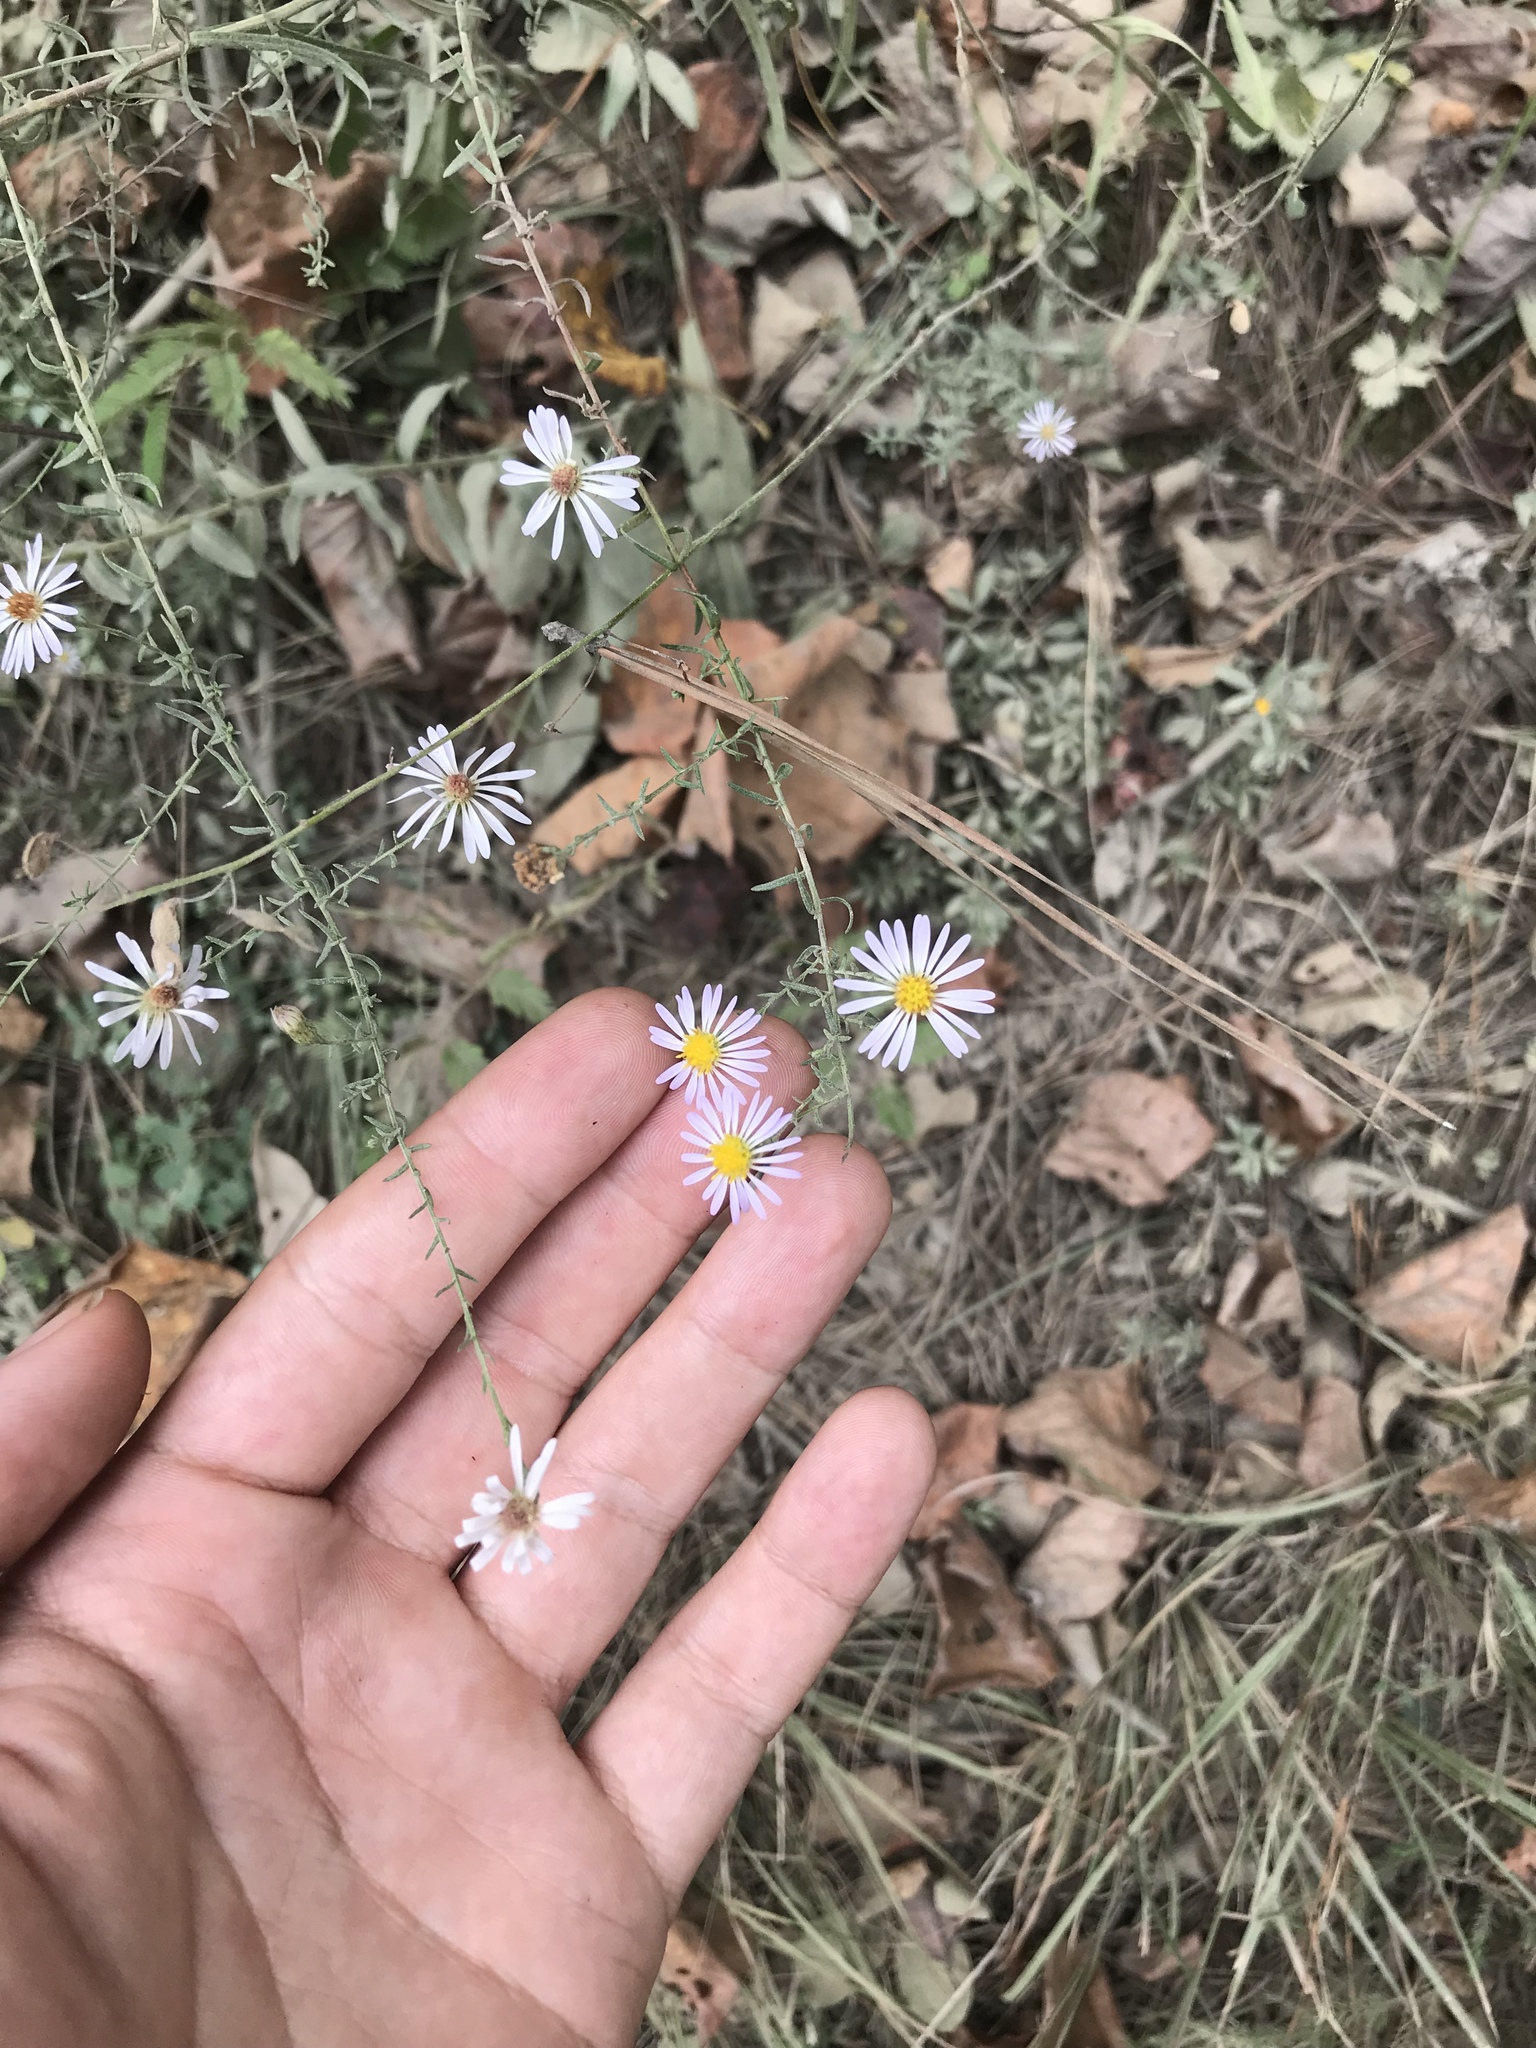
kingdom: Plantae
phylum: Tracheophyta
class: Magnoliopsida
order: Asterales
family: Asteraceae
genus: Symphyotrichum
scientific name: Symphyotrichum dumosum
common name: Bushy aster
